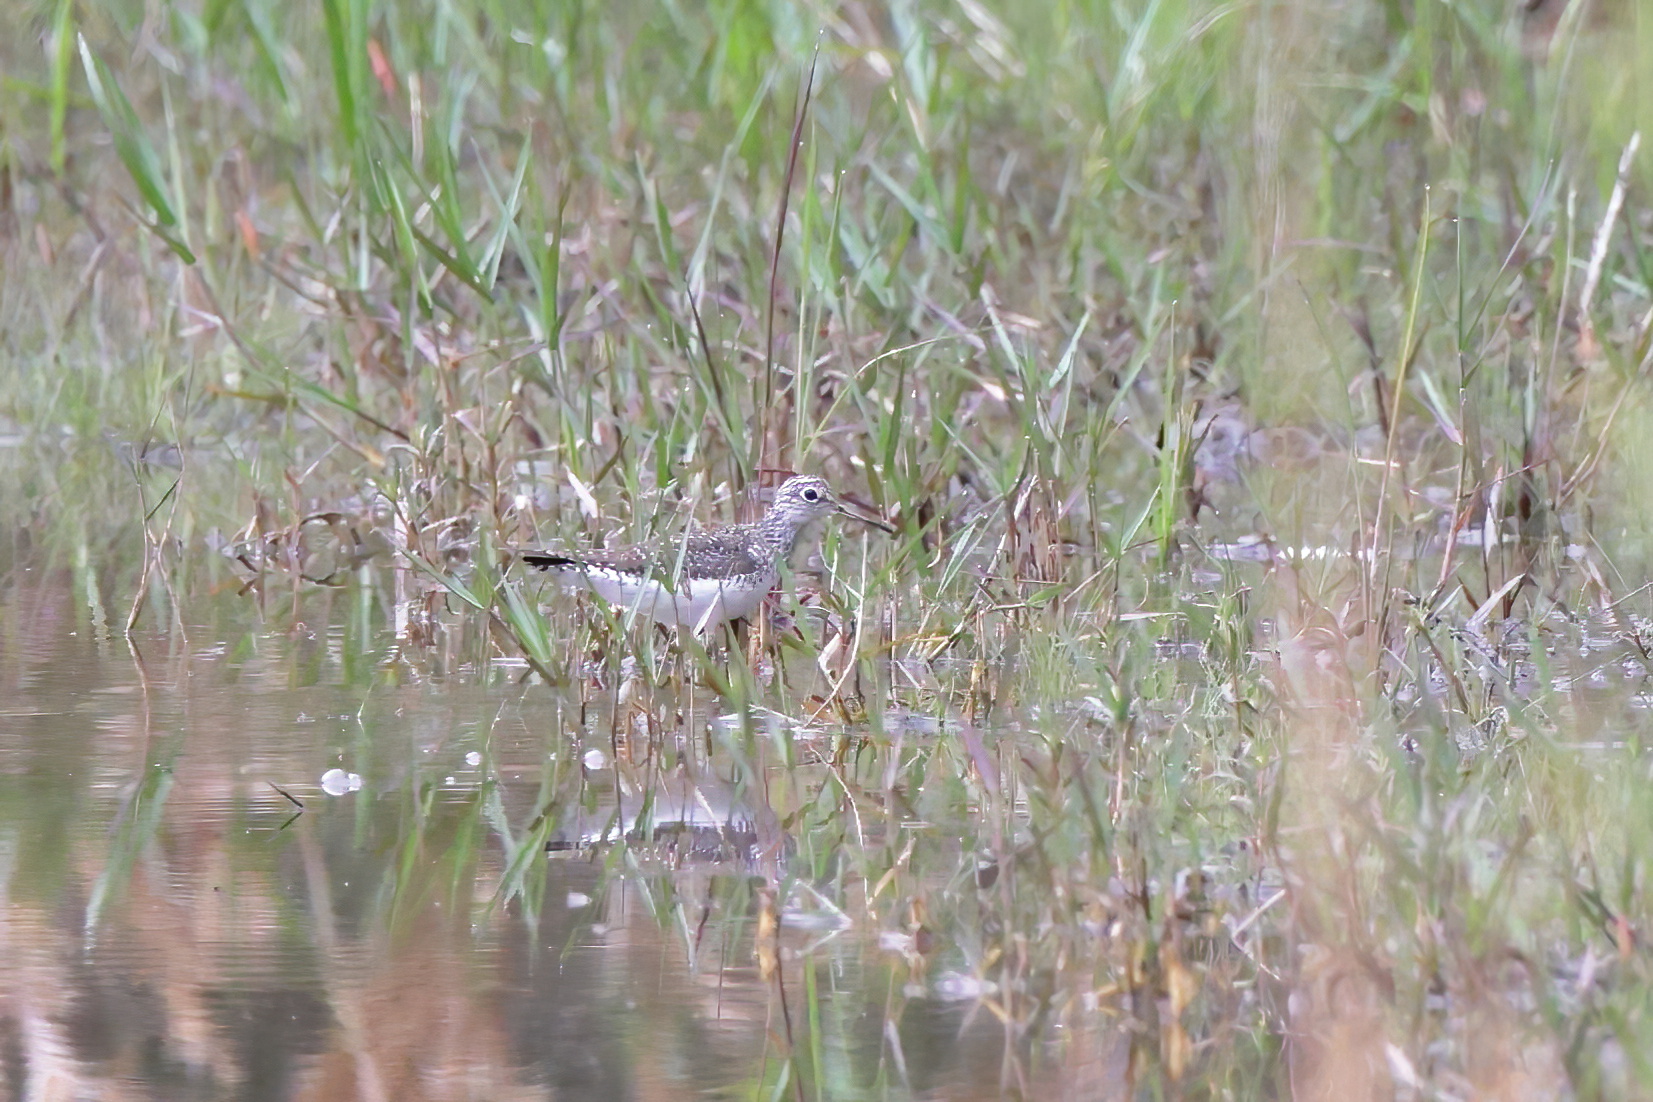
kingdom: Animalia
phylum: Chordata
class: Aves
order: Charadriiformes
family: Scolopacidae
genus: Tringa
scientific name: Tringa solitaria
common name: Solitary sandpiper
